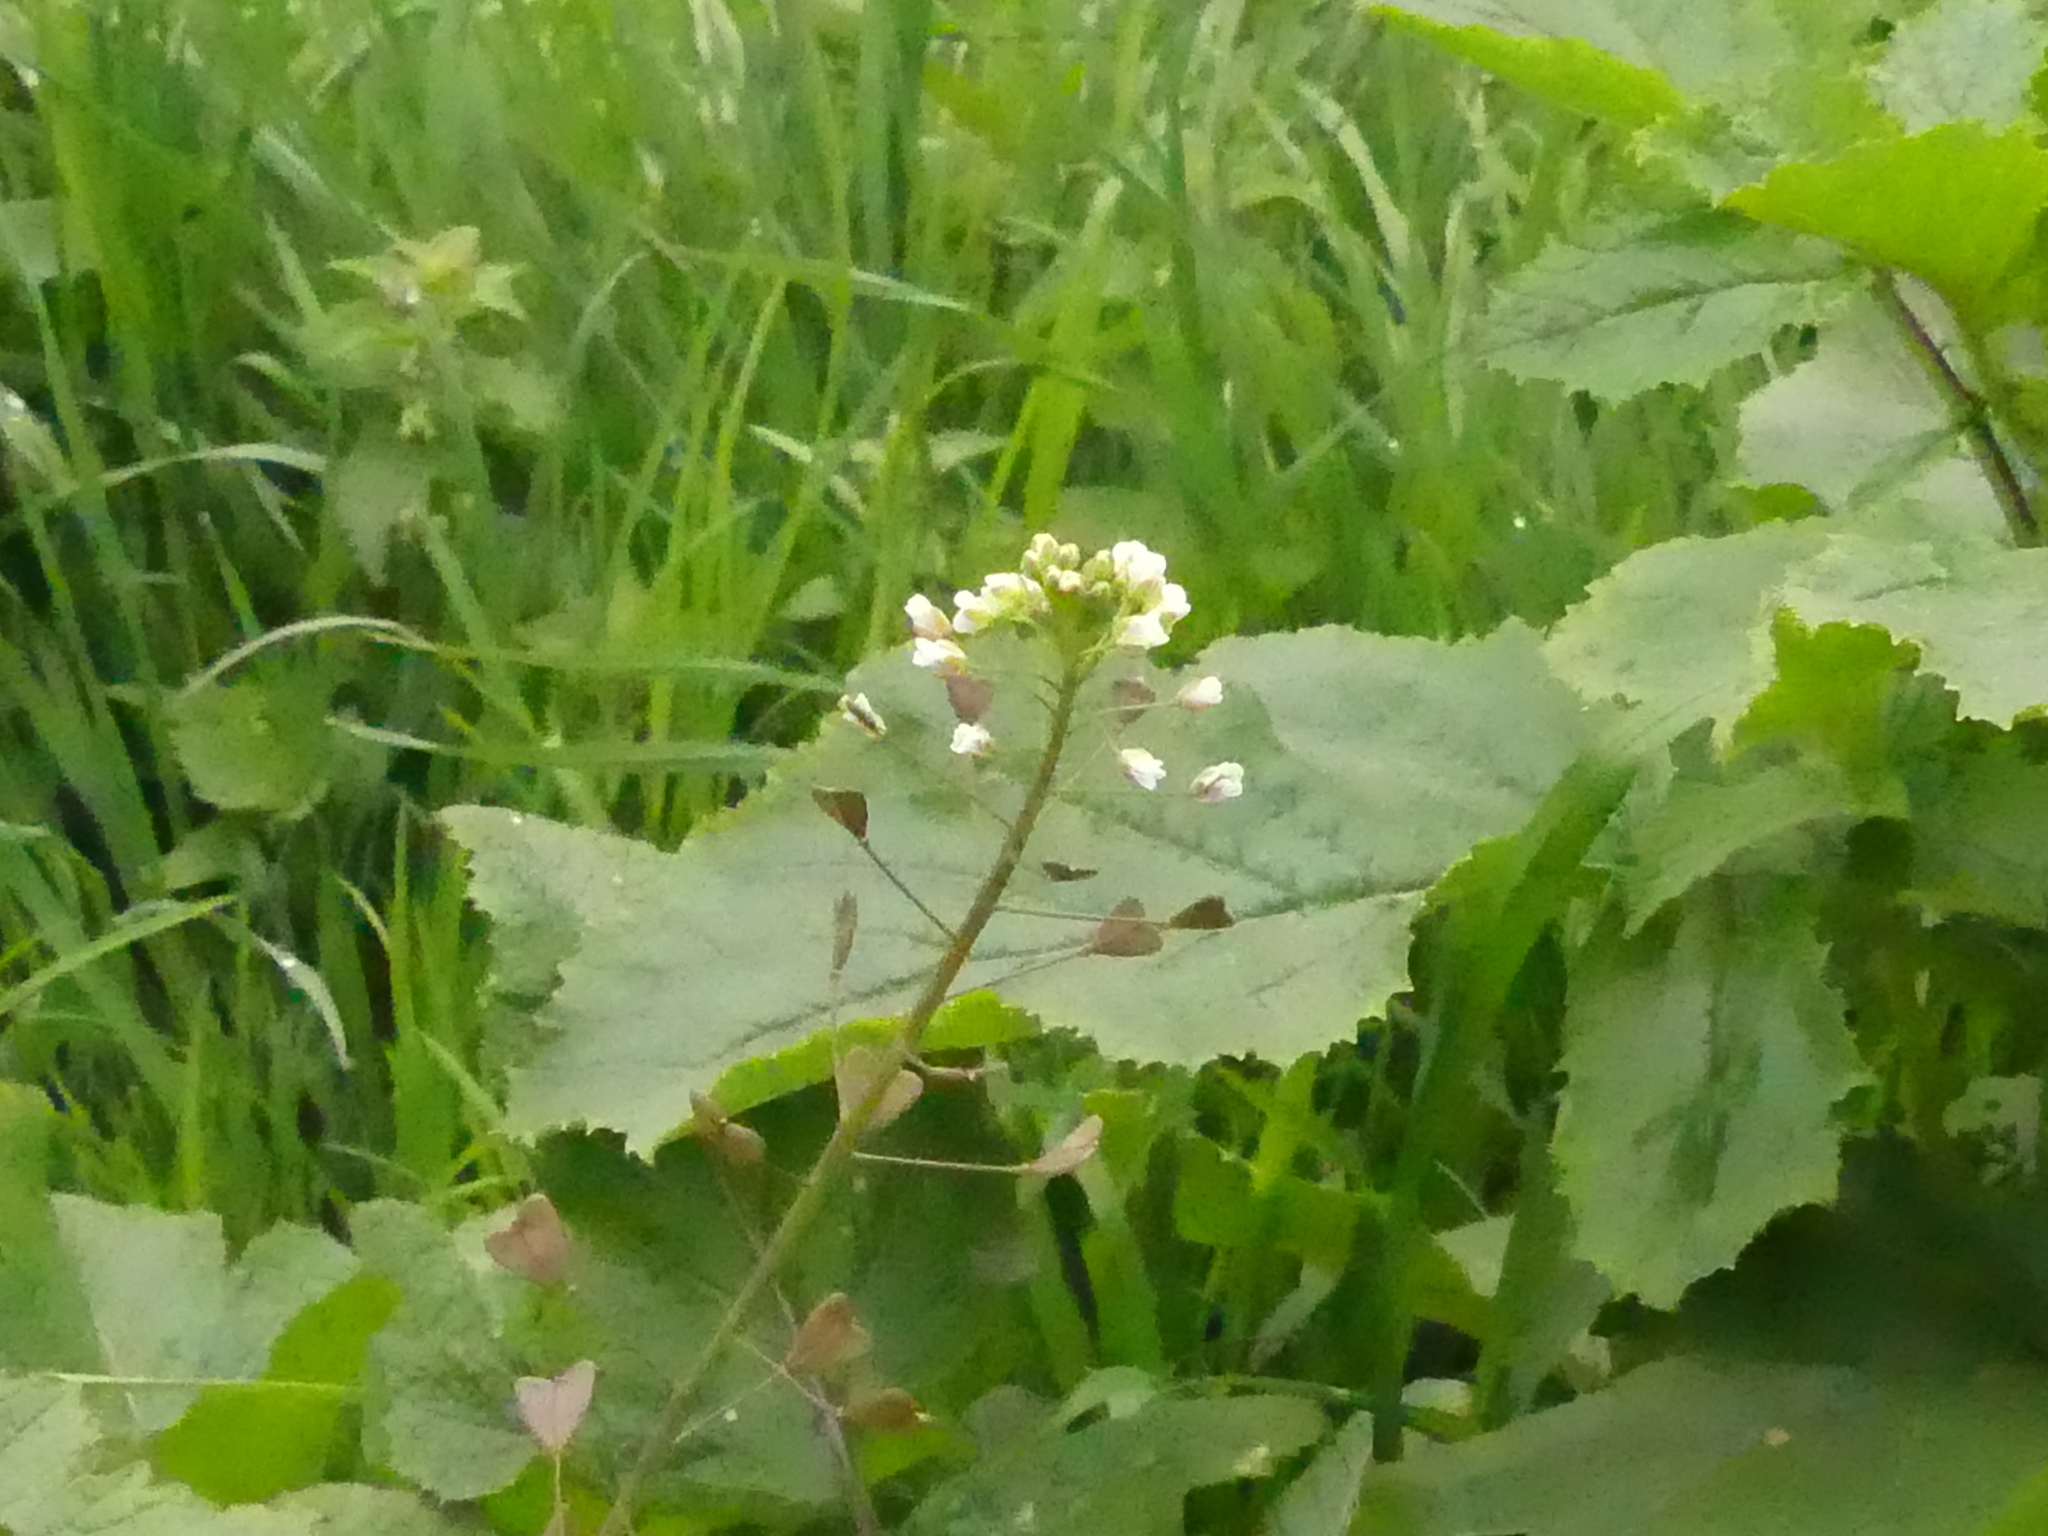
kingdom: Plantae
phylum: Tracheophyta
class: Magnoliopsida
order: Brassicales
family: Brassicaceae
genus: Capsella
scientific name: Capsella bursa-pastoris
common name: Shepherd's purse
